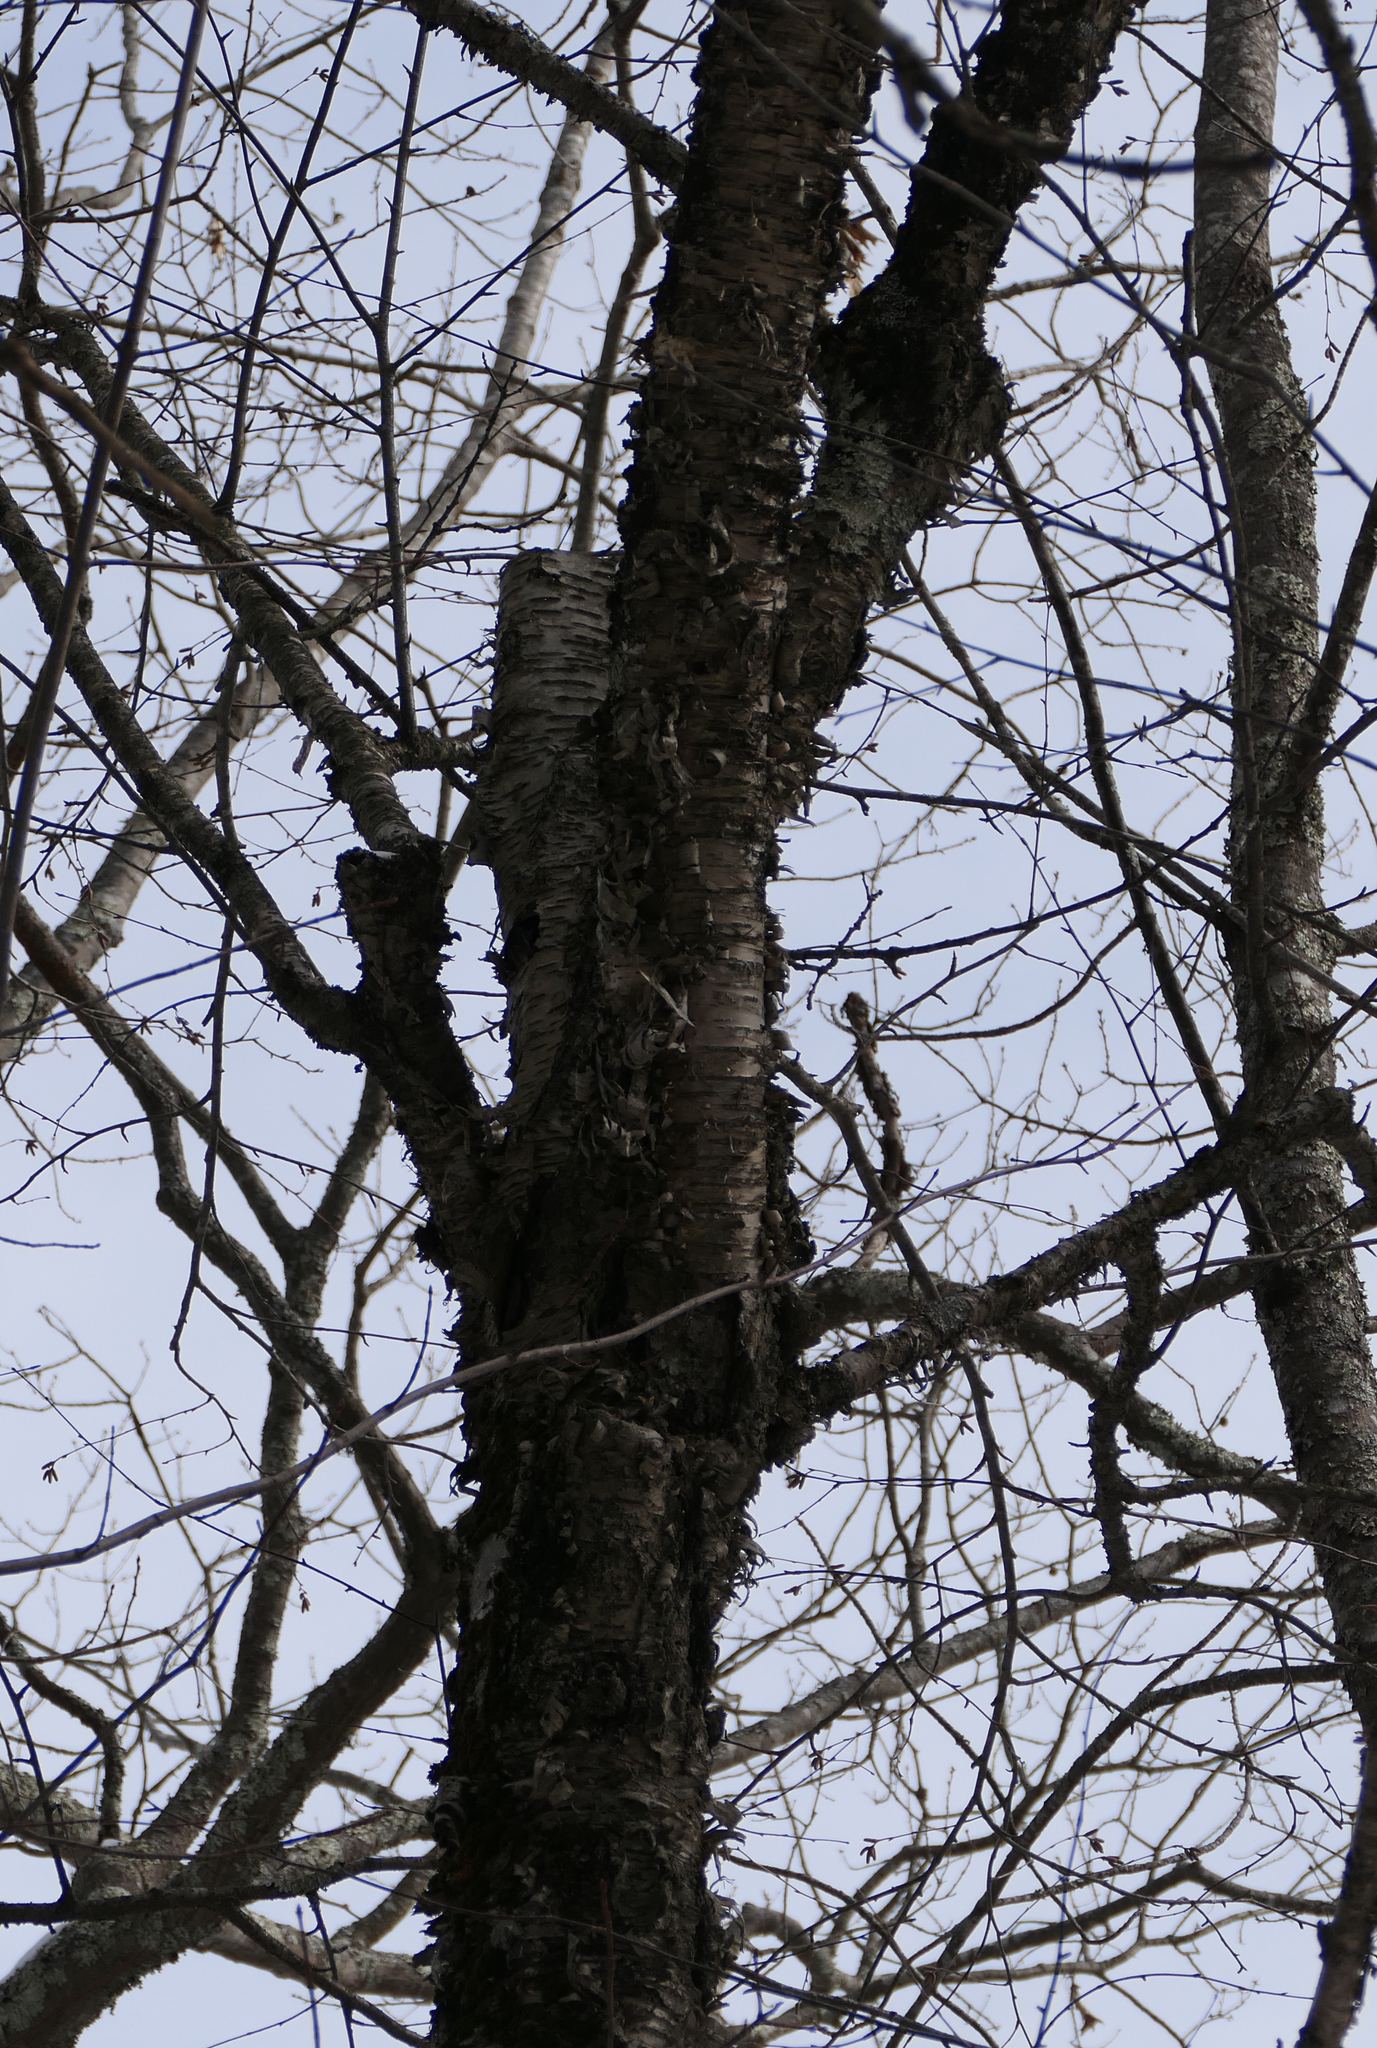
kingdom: Plantae
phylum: Tracheophyta
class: Magnoliopsida
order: Fagales
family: Betulaceae
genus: Betula
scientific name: Betula alleghaniensis
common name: Yellow birch
